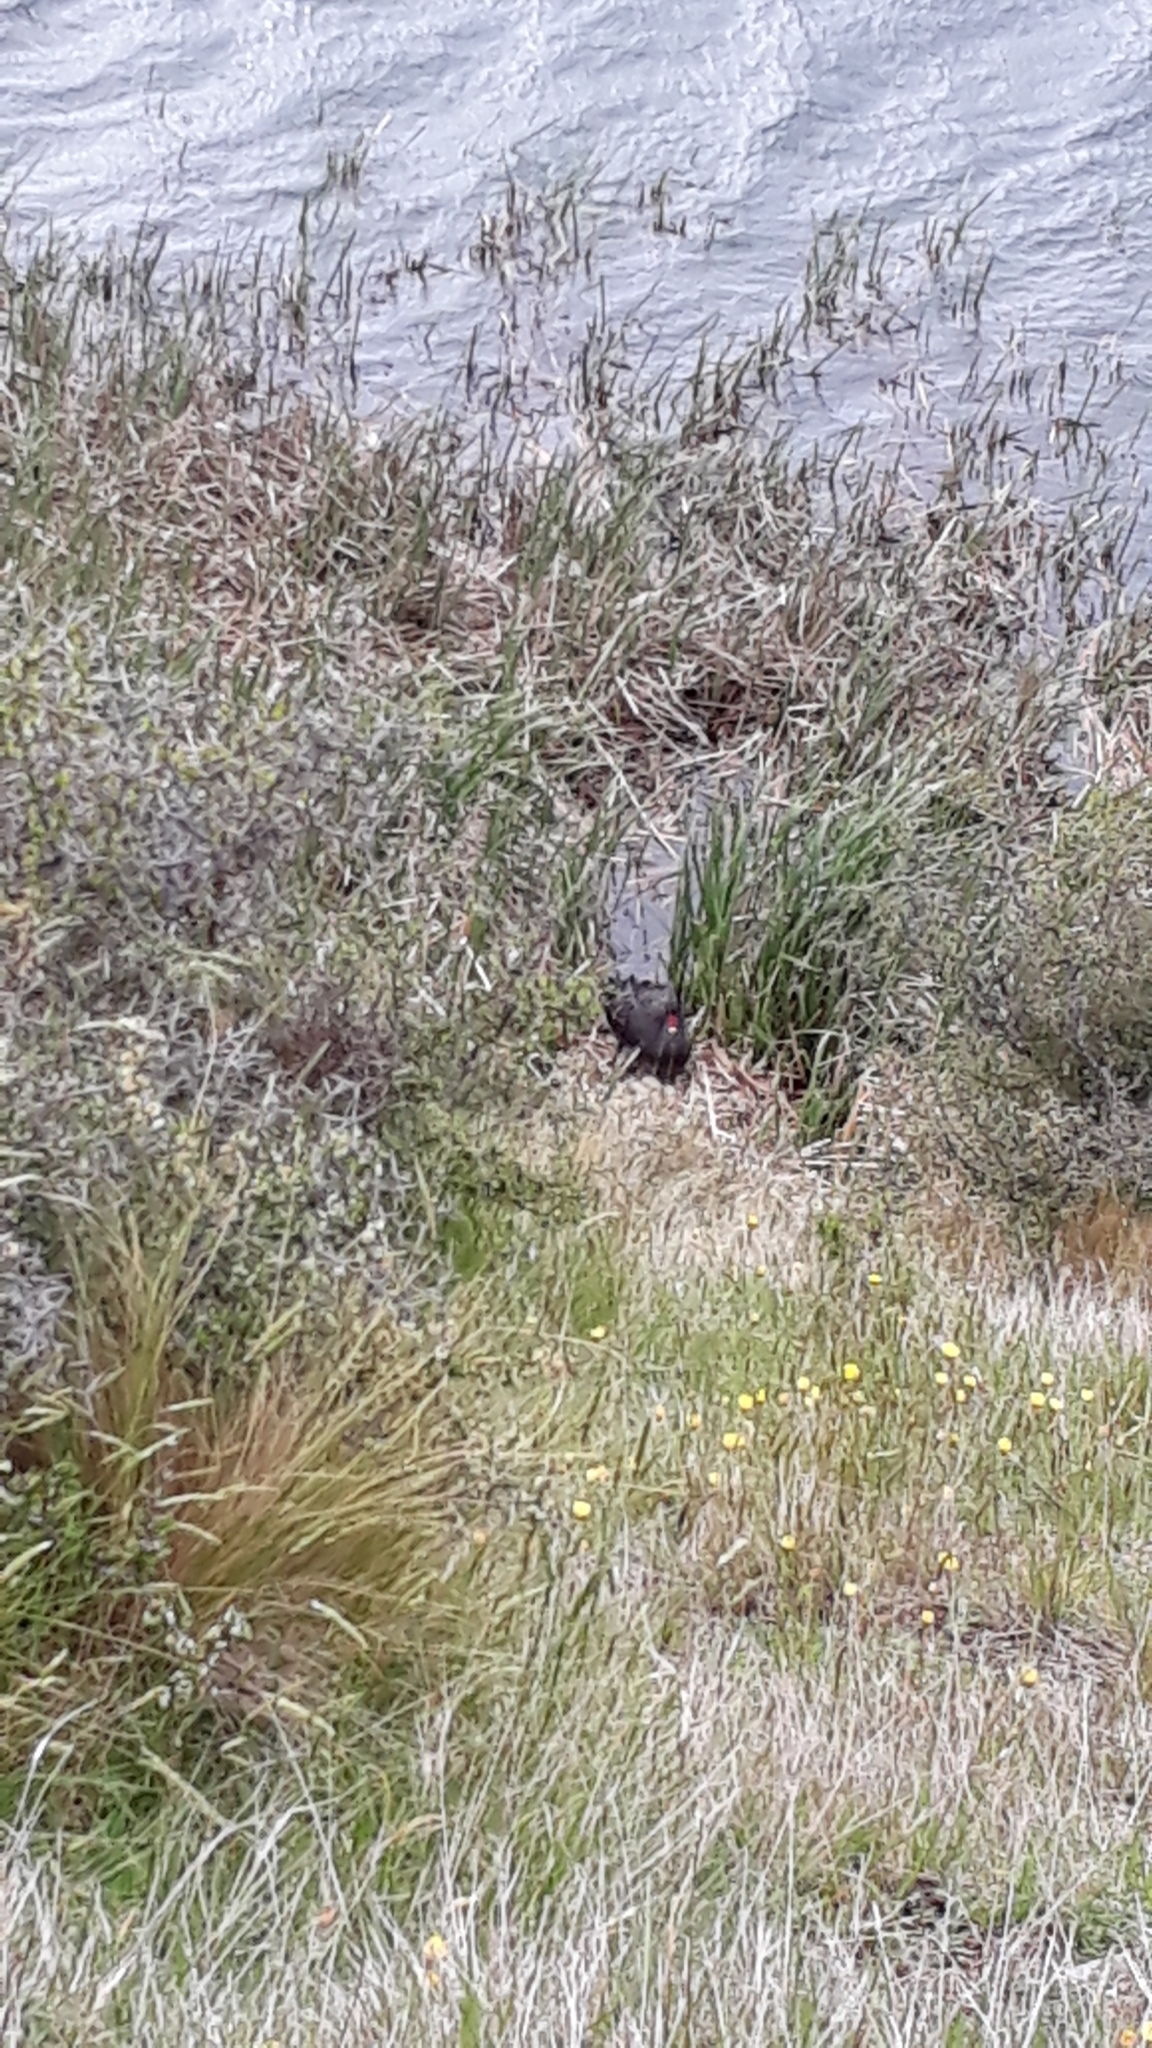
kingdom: Animalia
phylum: Chordata
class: Aves
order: Anseriformes
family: Anatidae
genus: Cygnus
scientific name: Cygnus atratus
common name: Black swan
